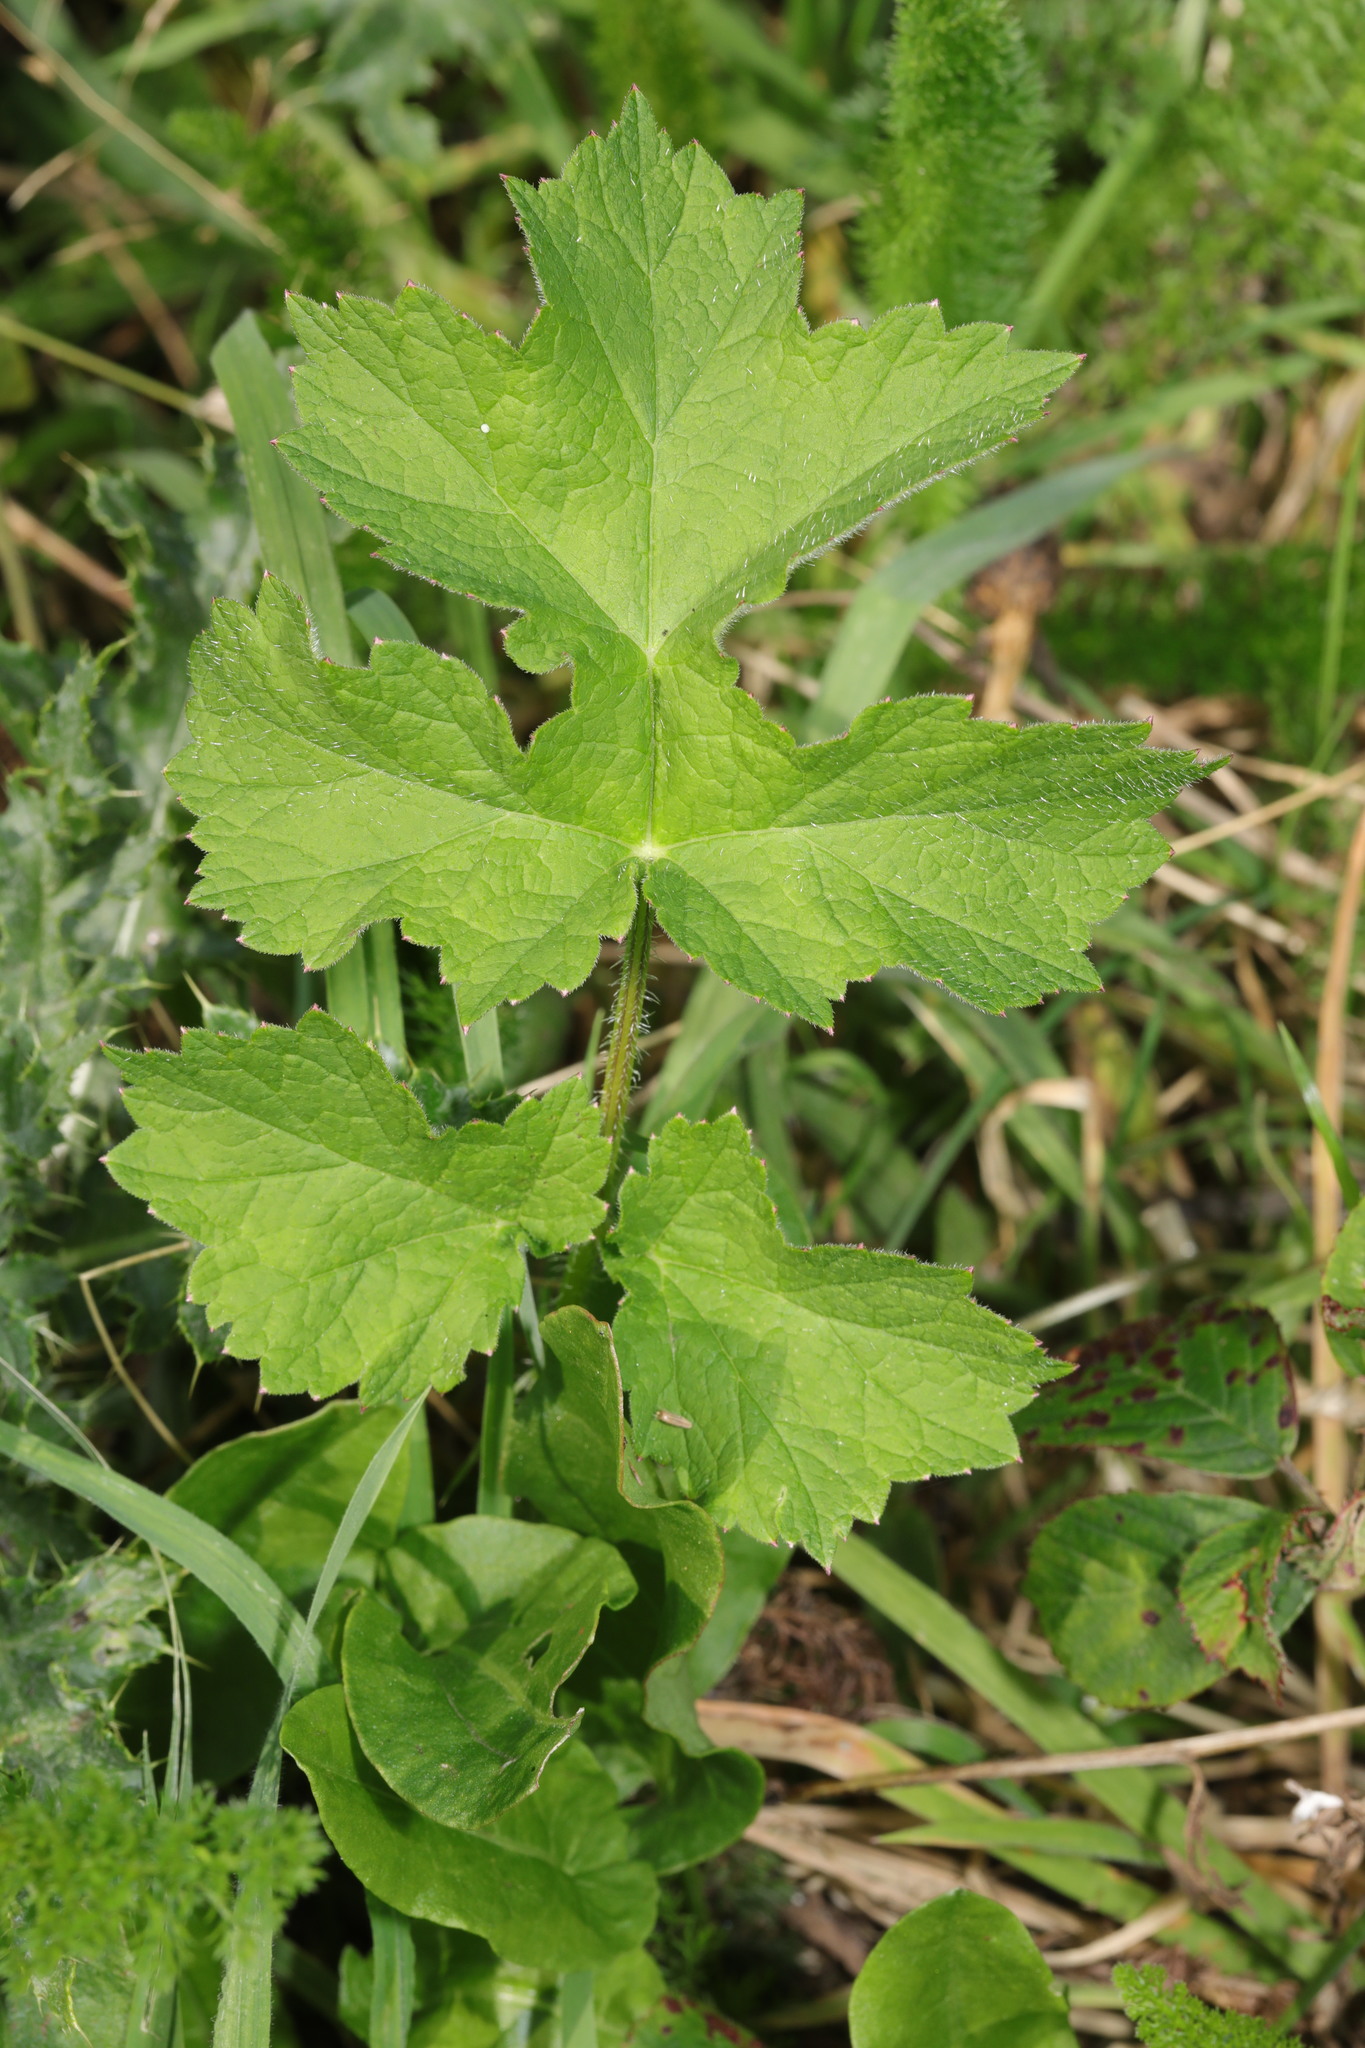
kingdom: Plantae
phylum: Tracheophyta
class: Magnoliopsida
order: Apiales
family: Apiaceae
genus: Heracleum
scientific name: Heracleum sphondylium
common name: Hogweed
